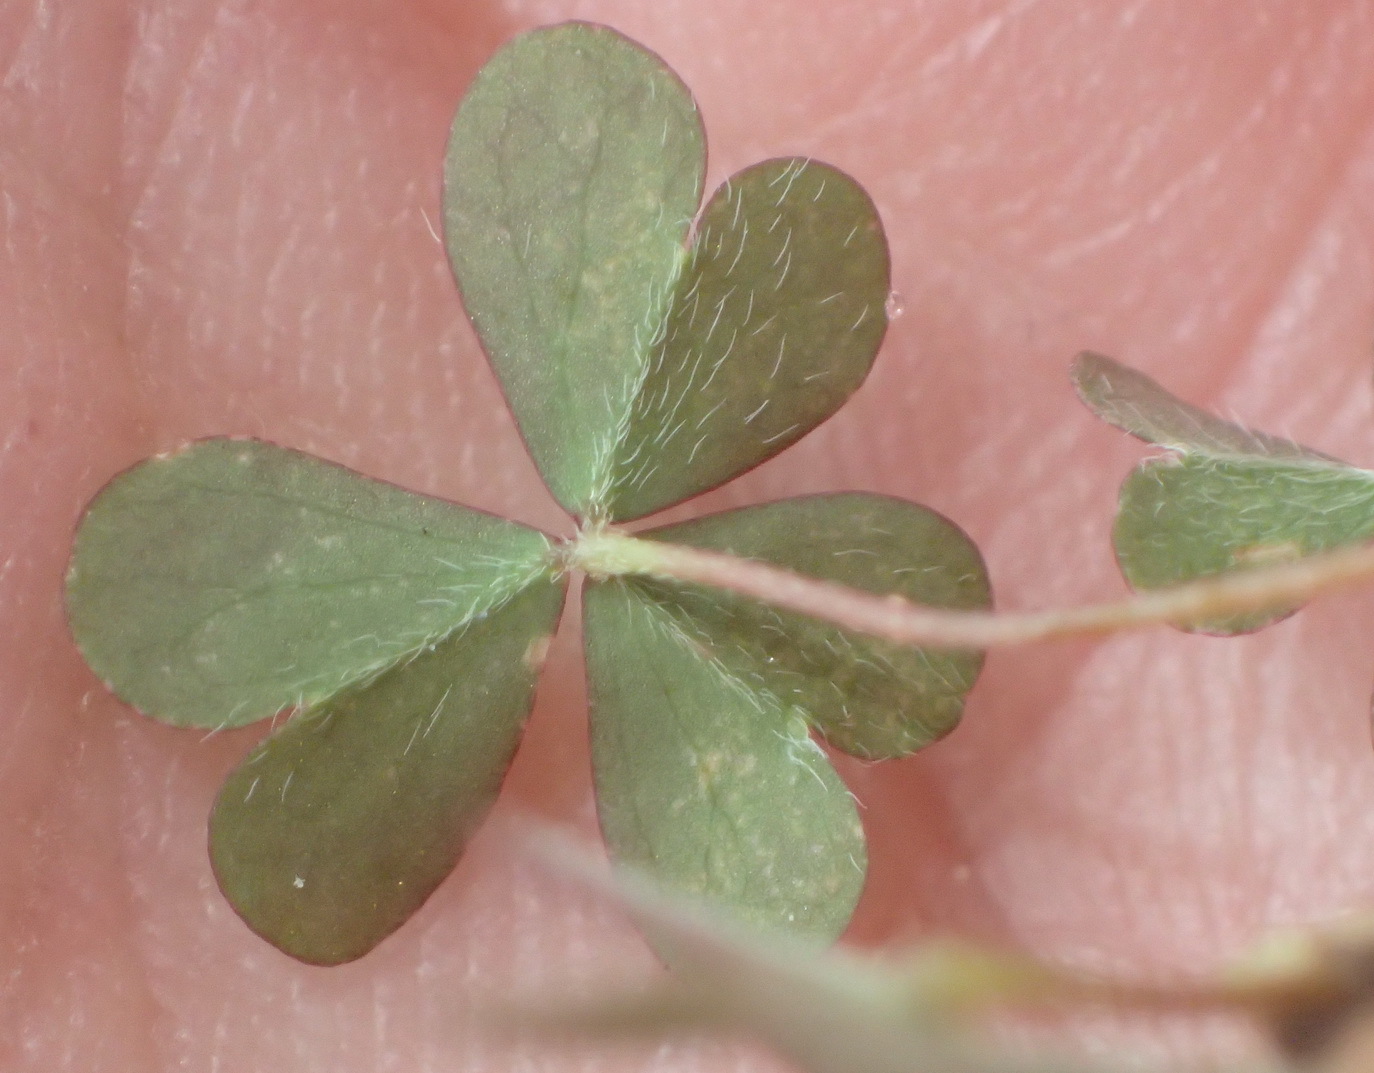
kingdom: Plantae
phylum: Tracheophyta
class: Magnoliopsida
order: Oxalidales
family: Oxalidaceae
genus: Oxalis
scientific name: Oxalis corniculata
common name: Procumbent yellow-sorrel
